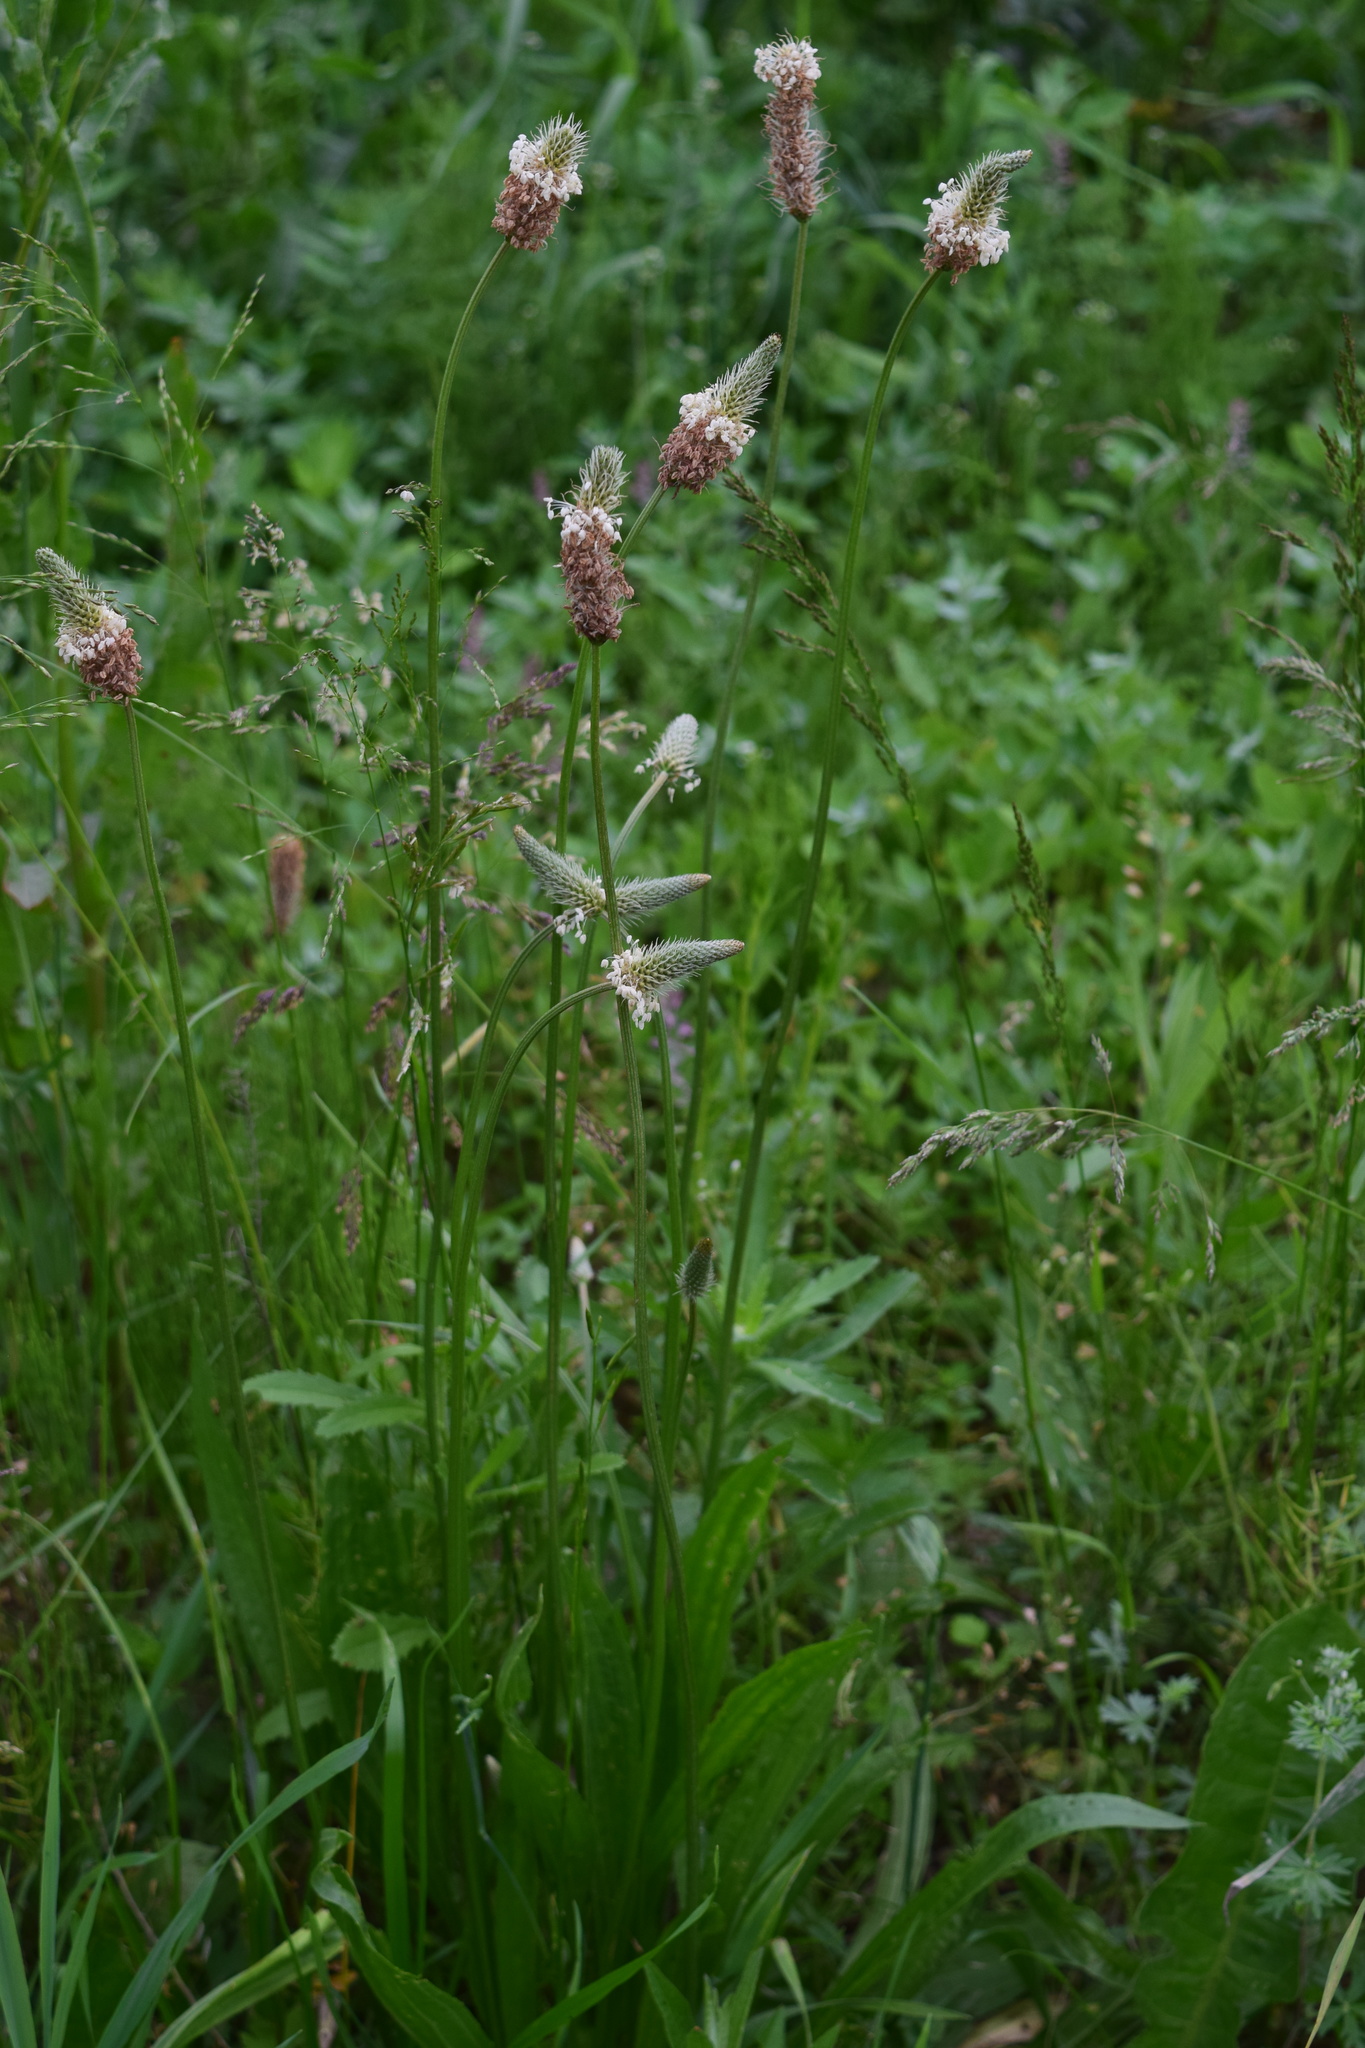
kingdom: Plantae
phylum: Tracheophyta
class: Magnoliopsida
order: Lamiales
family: Plantaginaceae
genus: Plantago
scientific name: Plantago lanceolata
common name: Ribwort plantain
